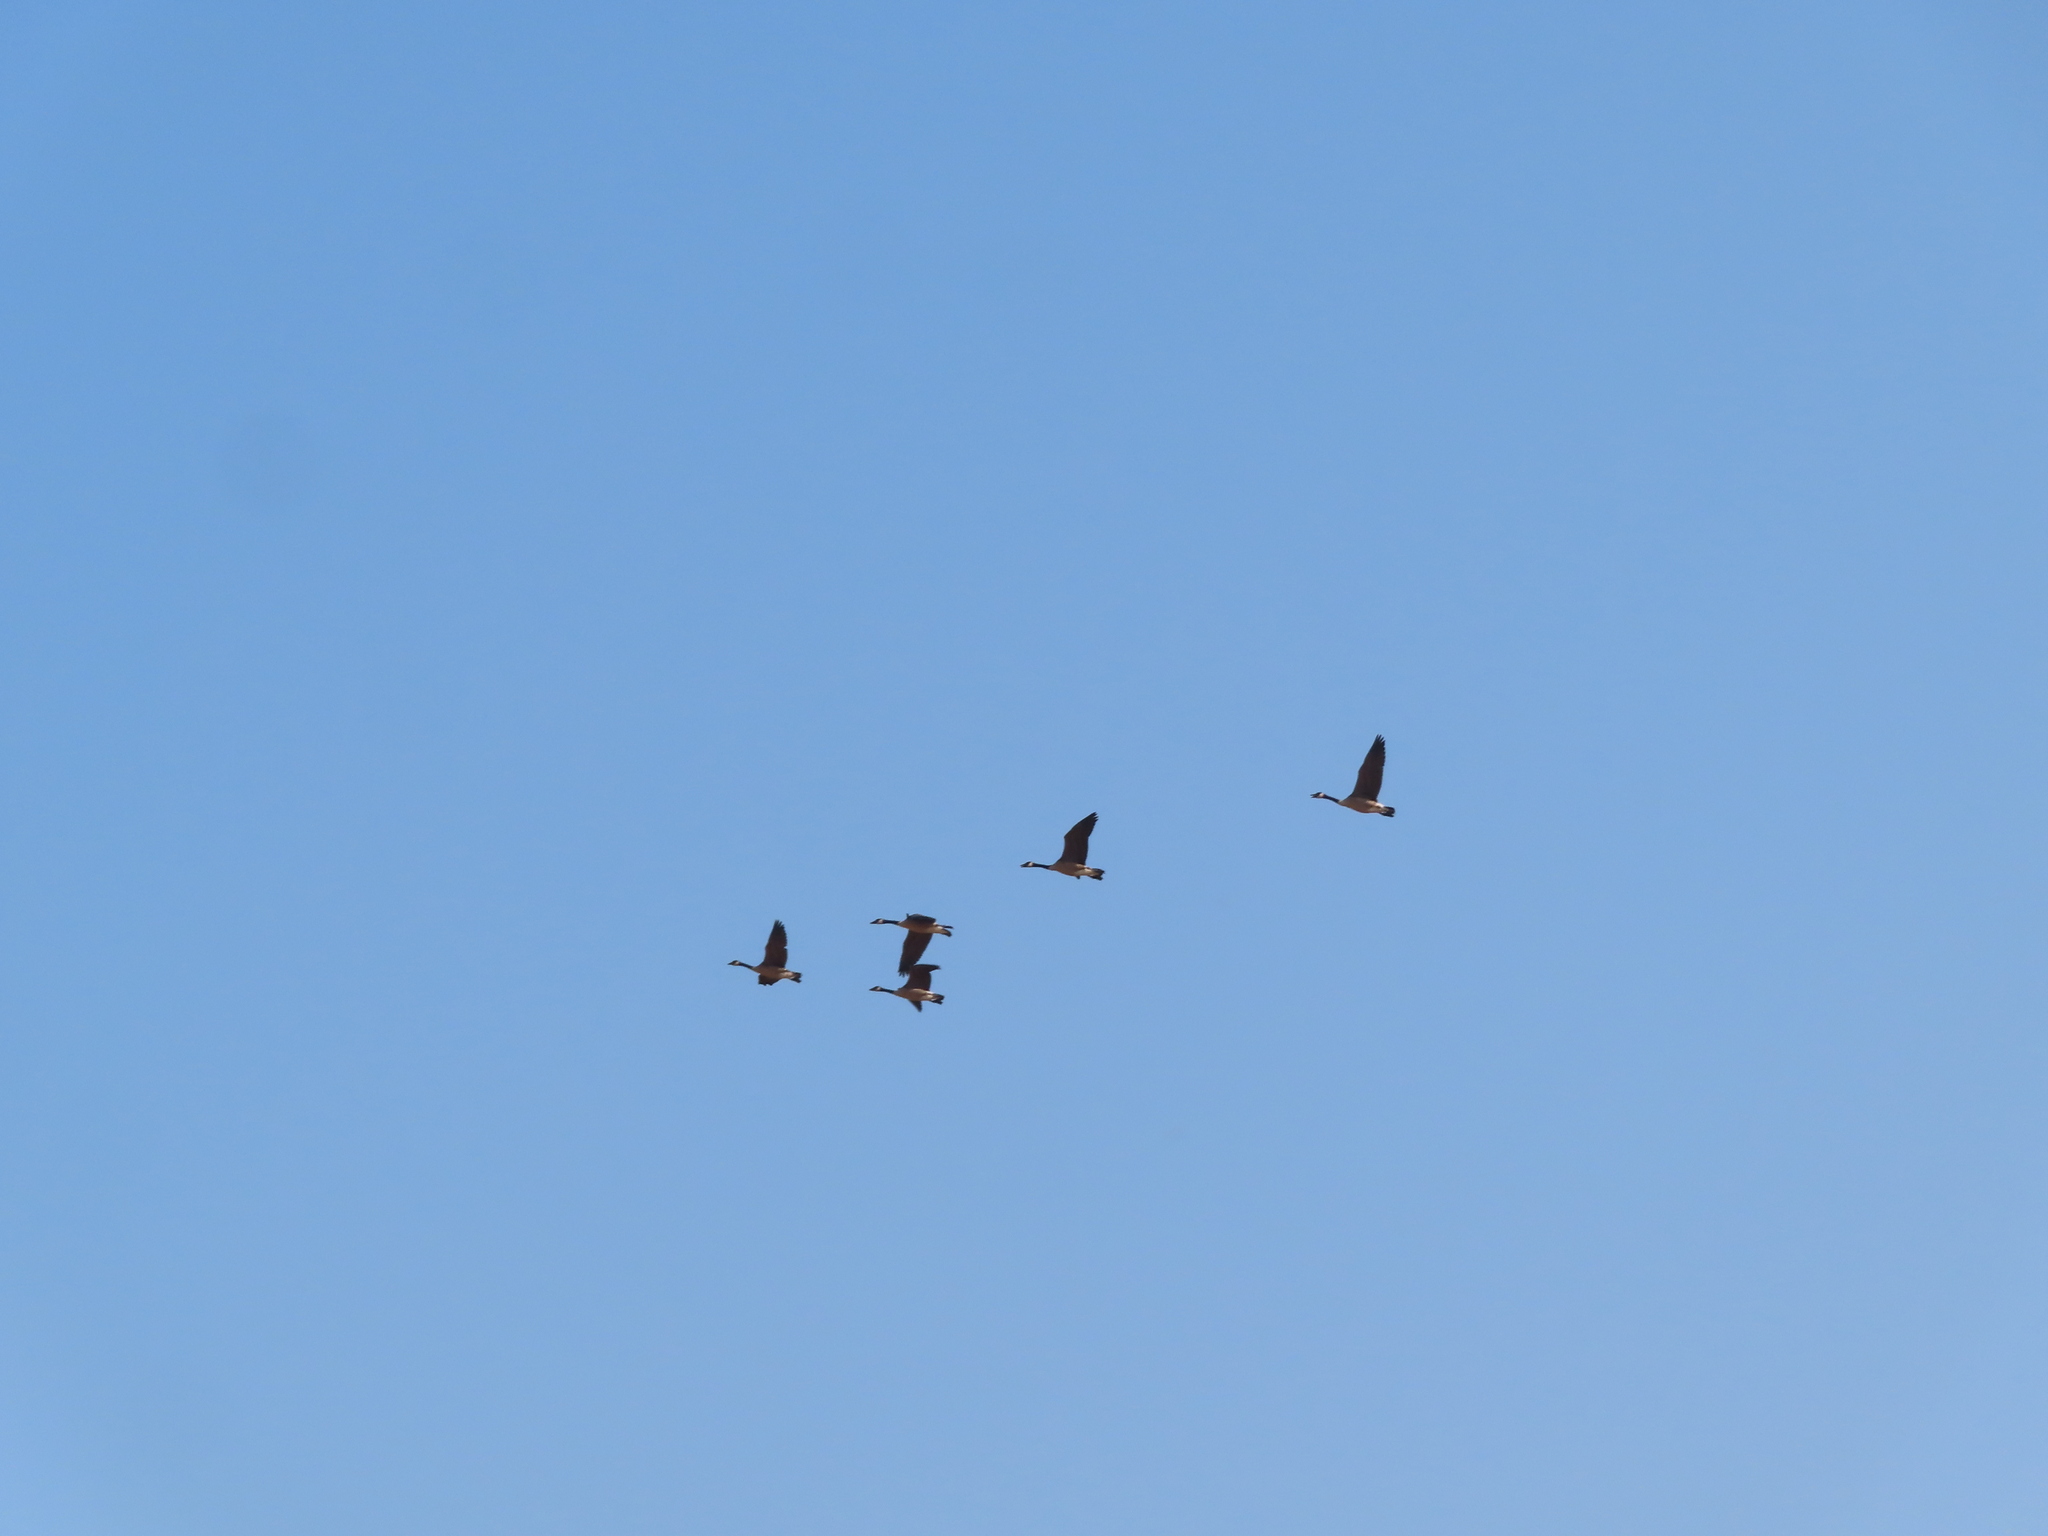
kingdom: Animalia
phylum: Chordata
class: Aves
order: Anseriformes
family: Anatidae
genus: Branta
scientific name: Branta canadensis
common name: Canada goose
